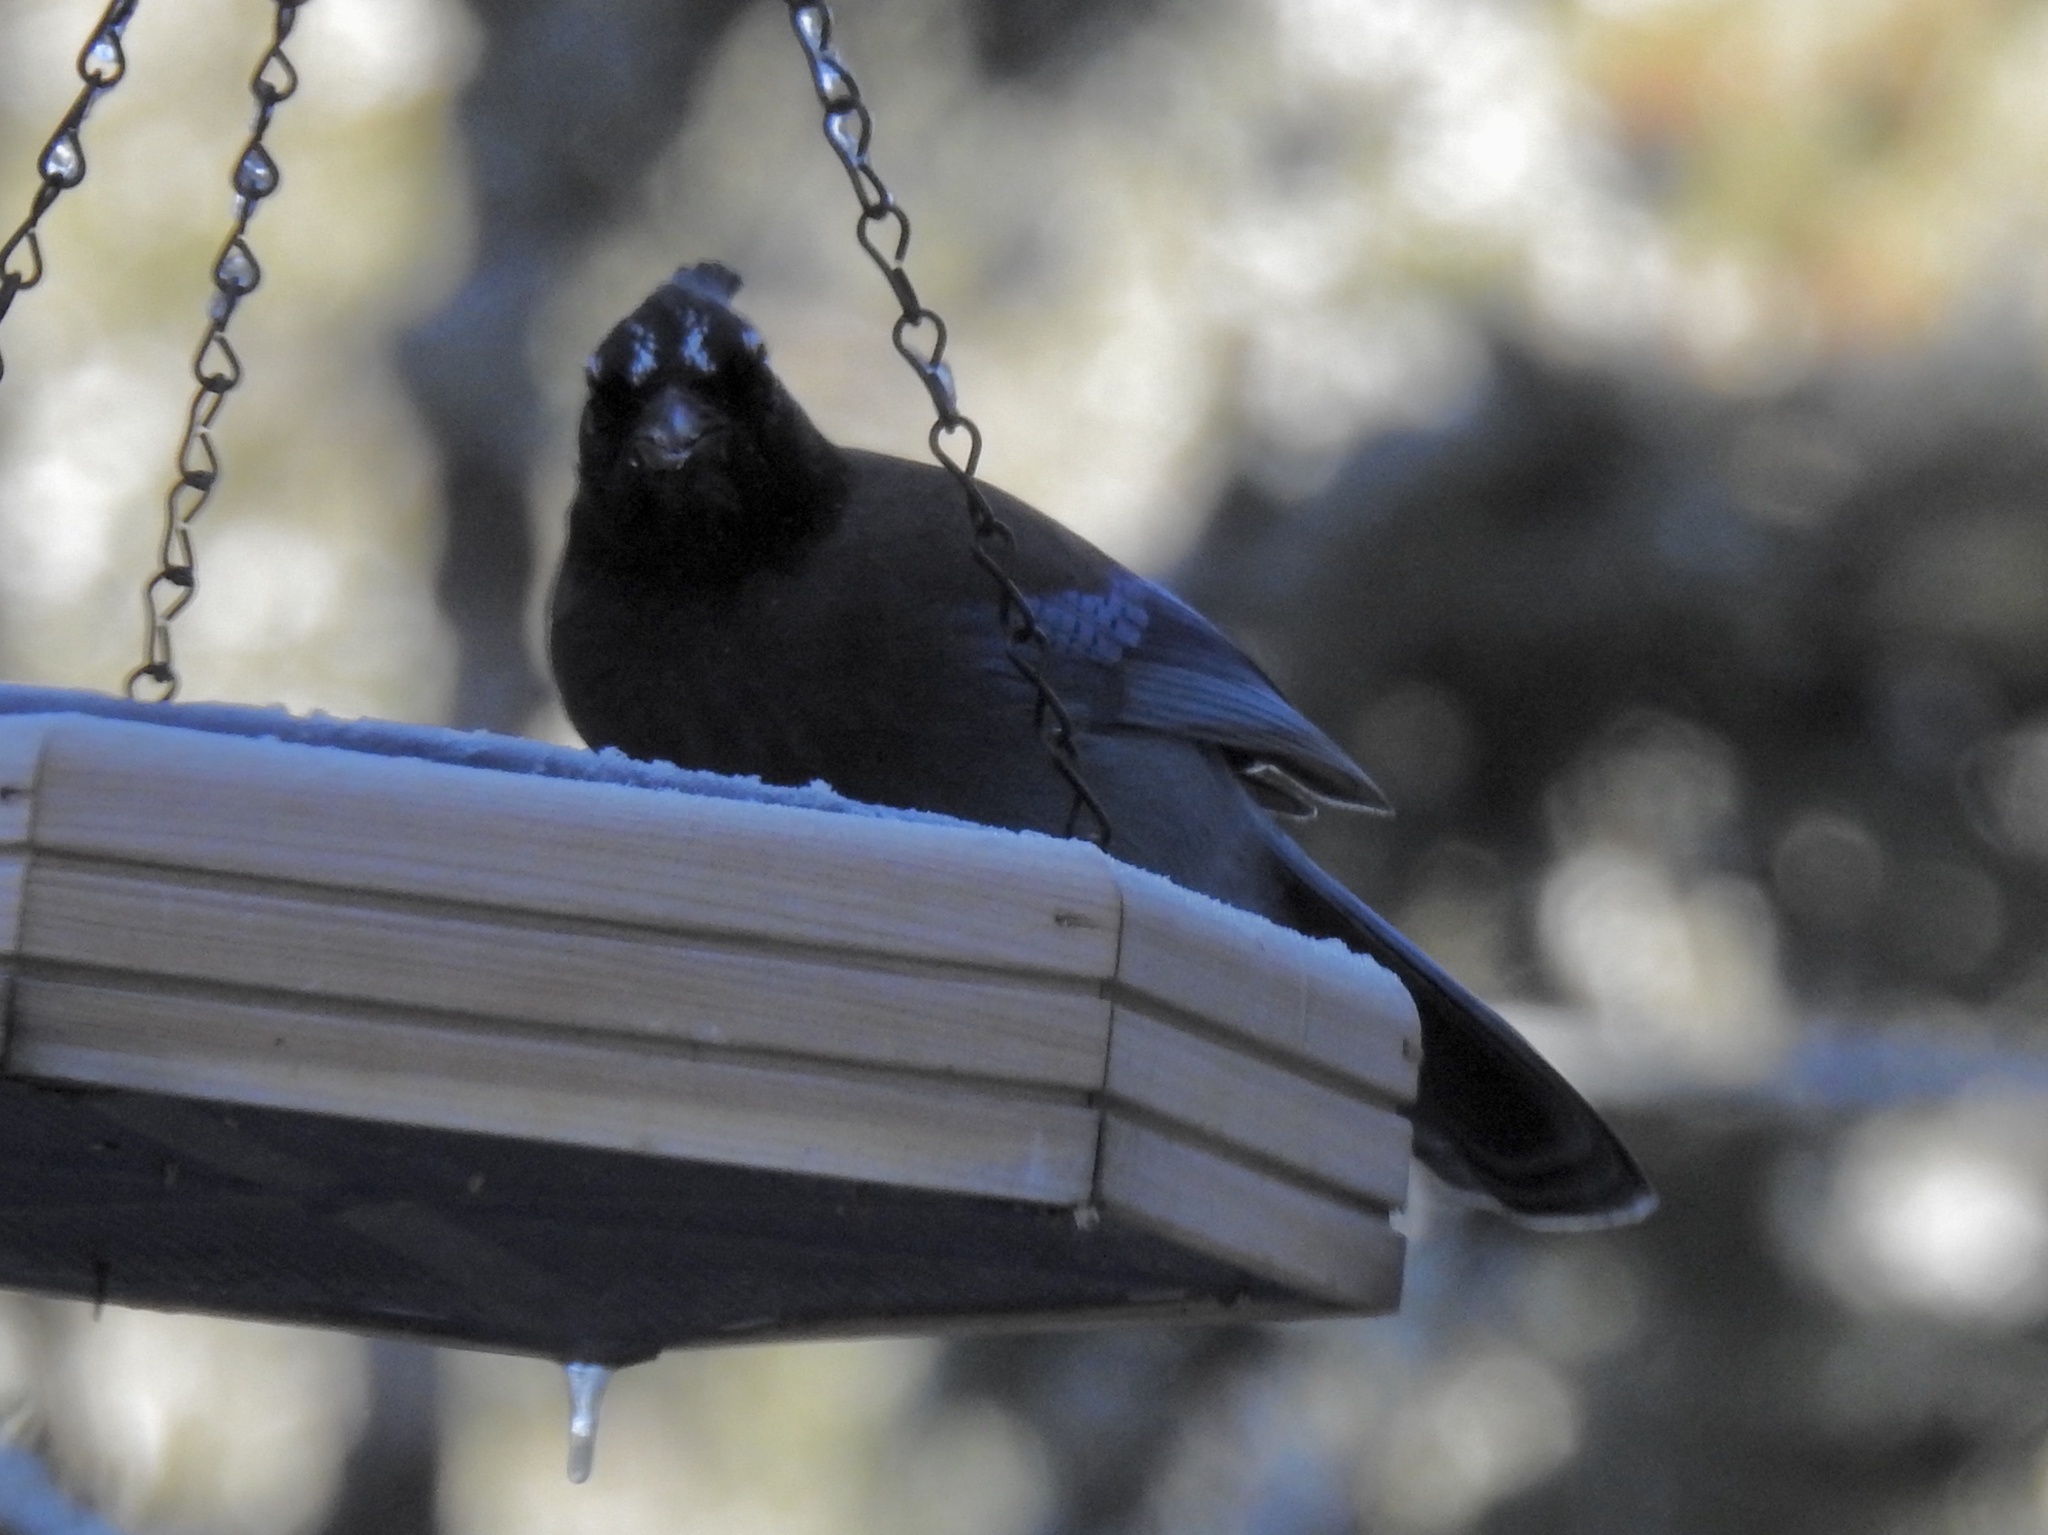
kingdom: Animalia
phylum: Chordata
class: Aves
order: Passeriformes
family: Corvidae
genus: Cyanocitta
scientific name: Cyanocitta stelleri
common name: Steller's jay
